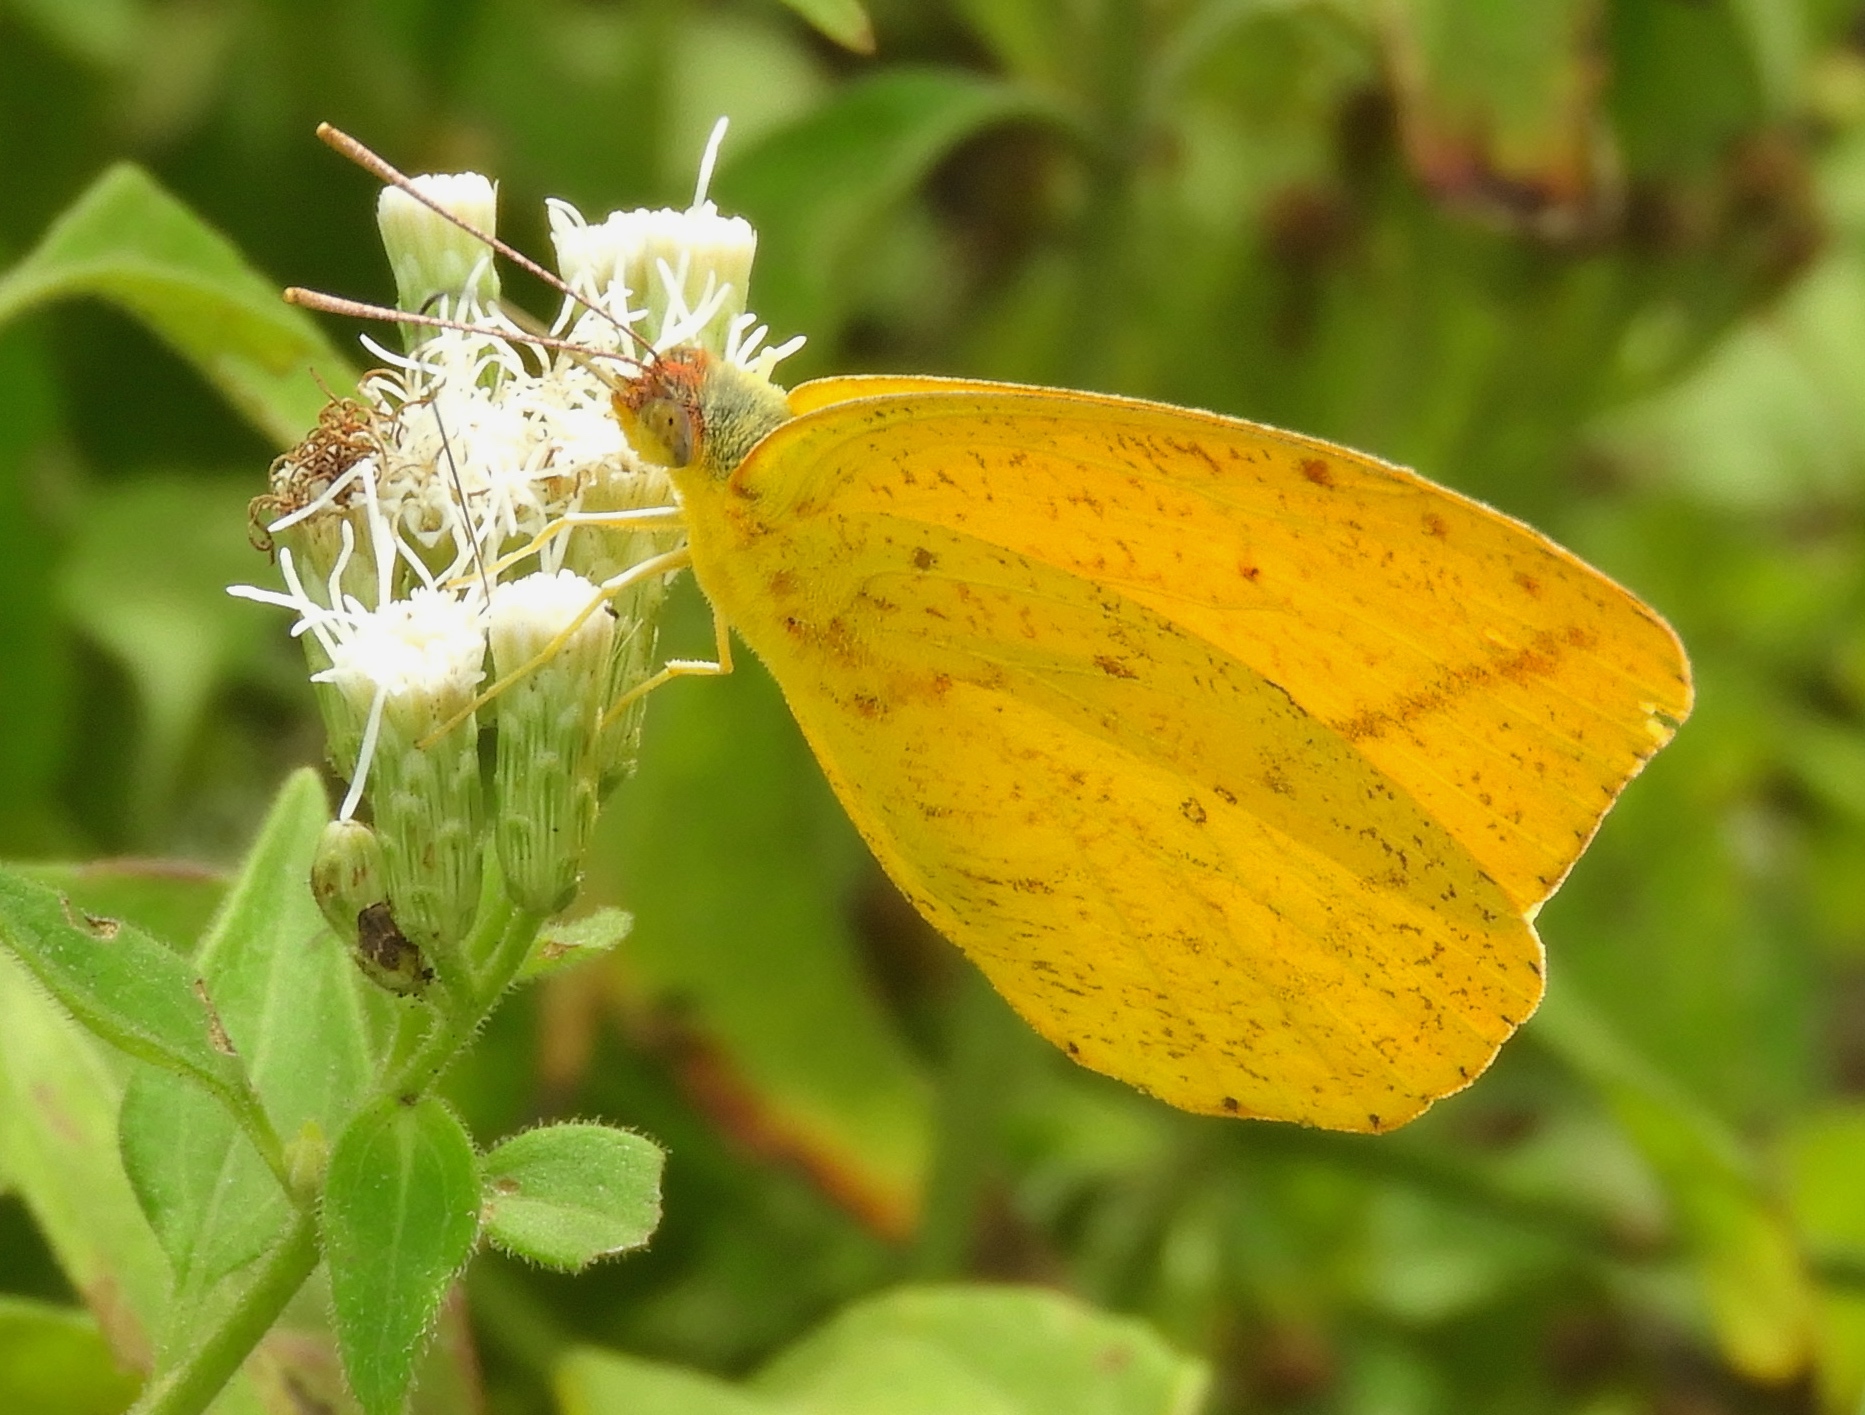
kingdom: Animalia
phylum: Arthropoda
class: Insecta
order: Lepidoptera
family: Pieridae
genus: Phoebis
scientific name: Phoebis agarithe
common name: Large orange sulphur
